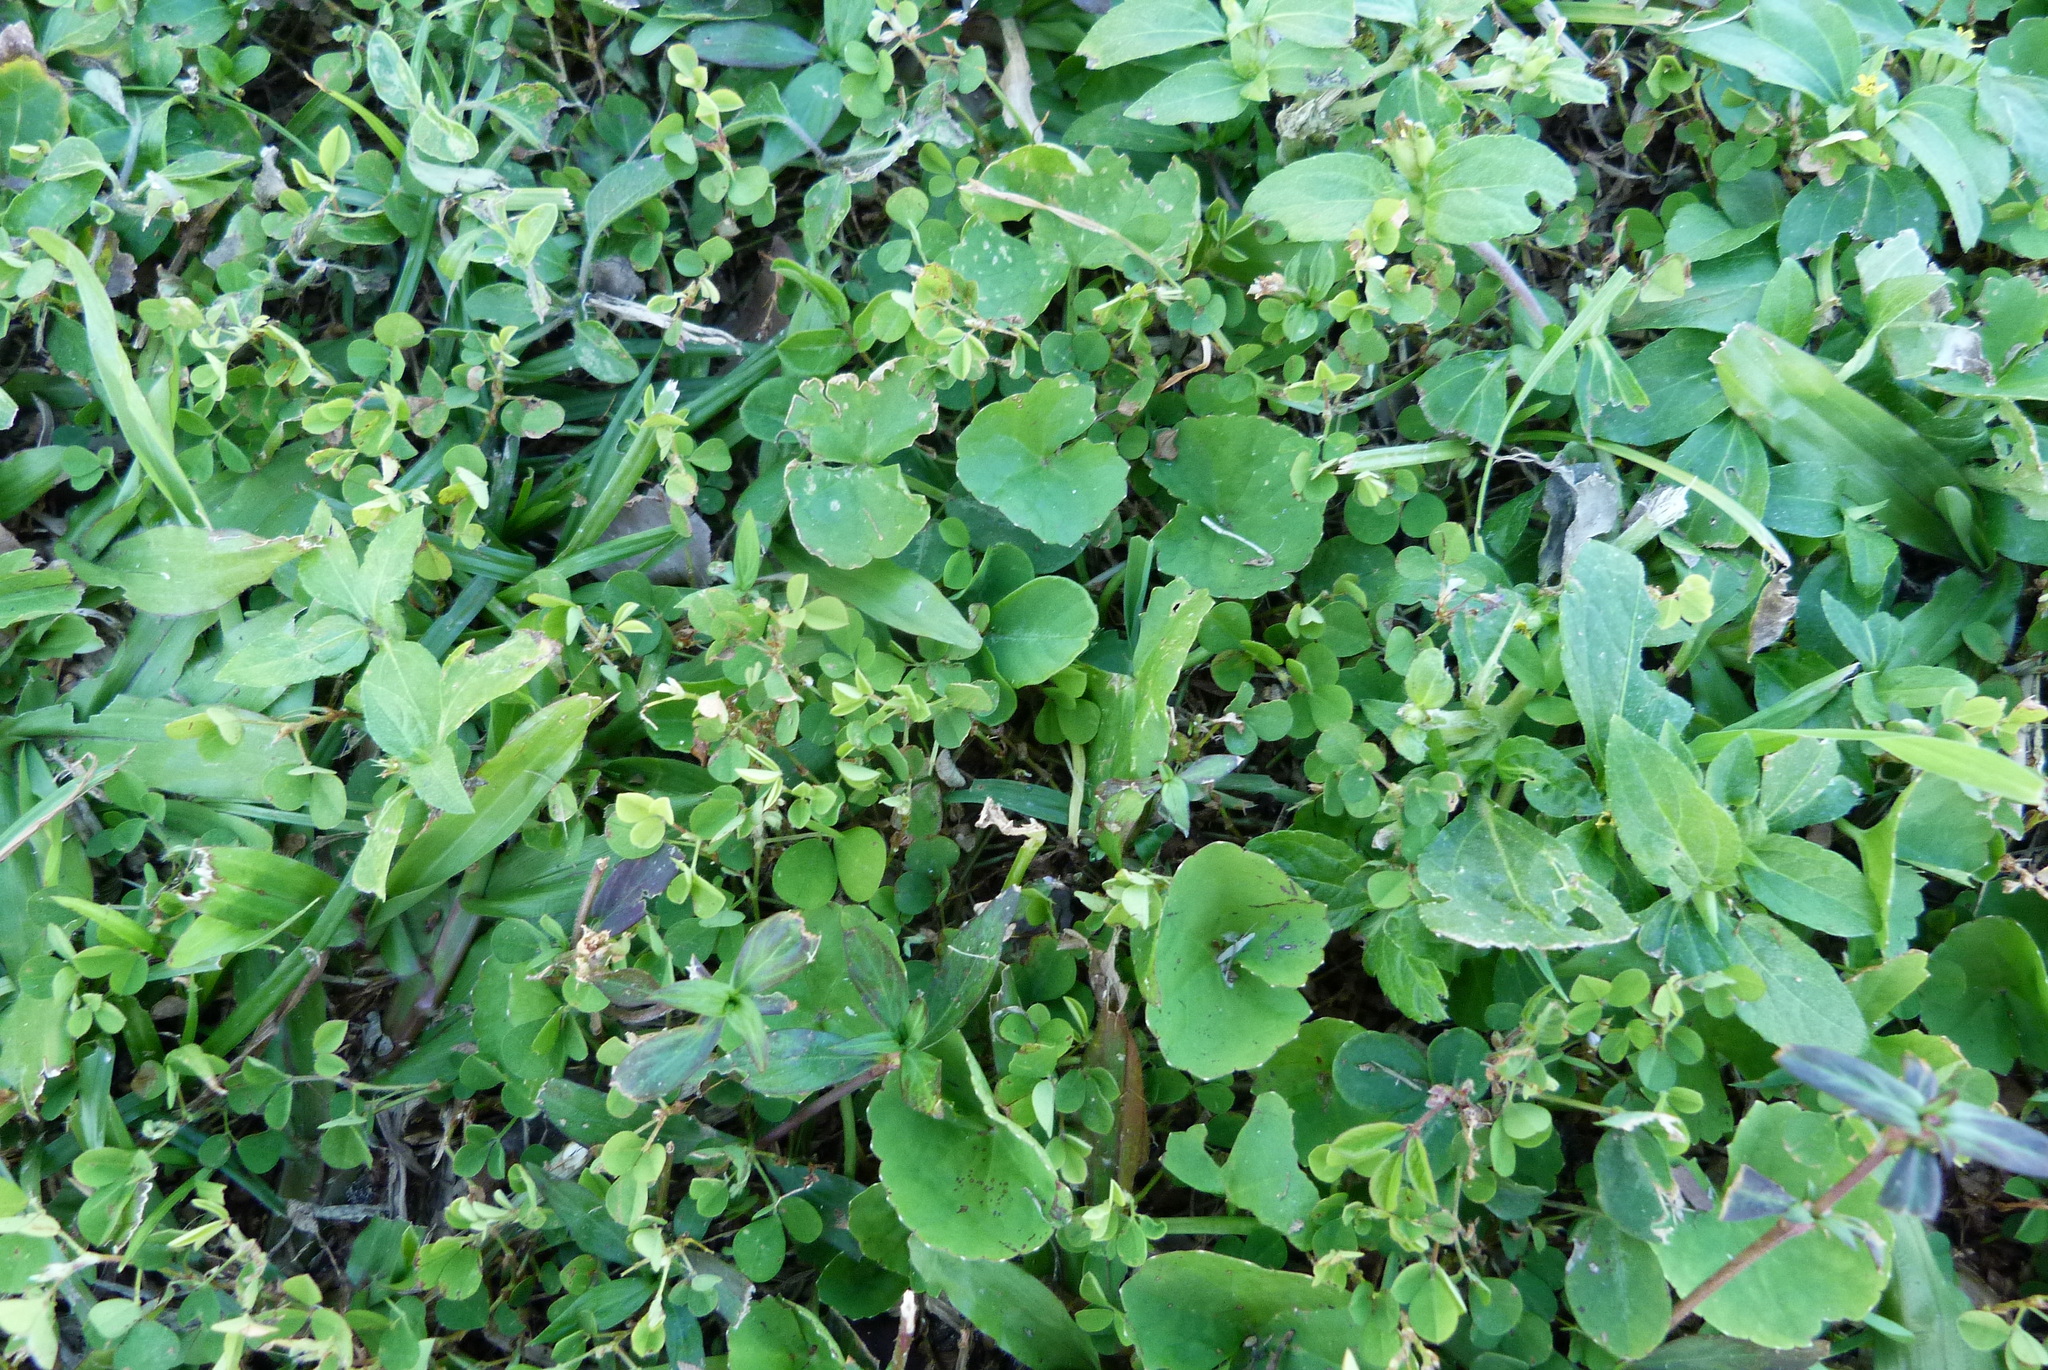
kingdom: Plantae
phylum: Tracheophyta
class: Magnoliopsida
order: Apiales
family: Apiaceae
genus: Centella
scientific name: Centella asiatica
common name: Spadeleaf
